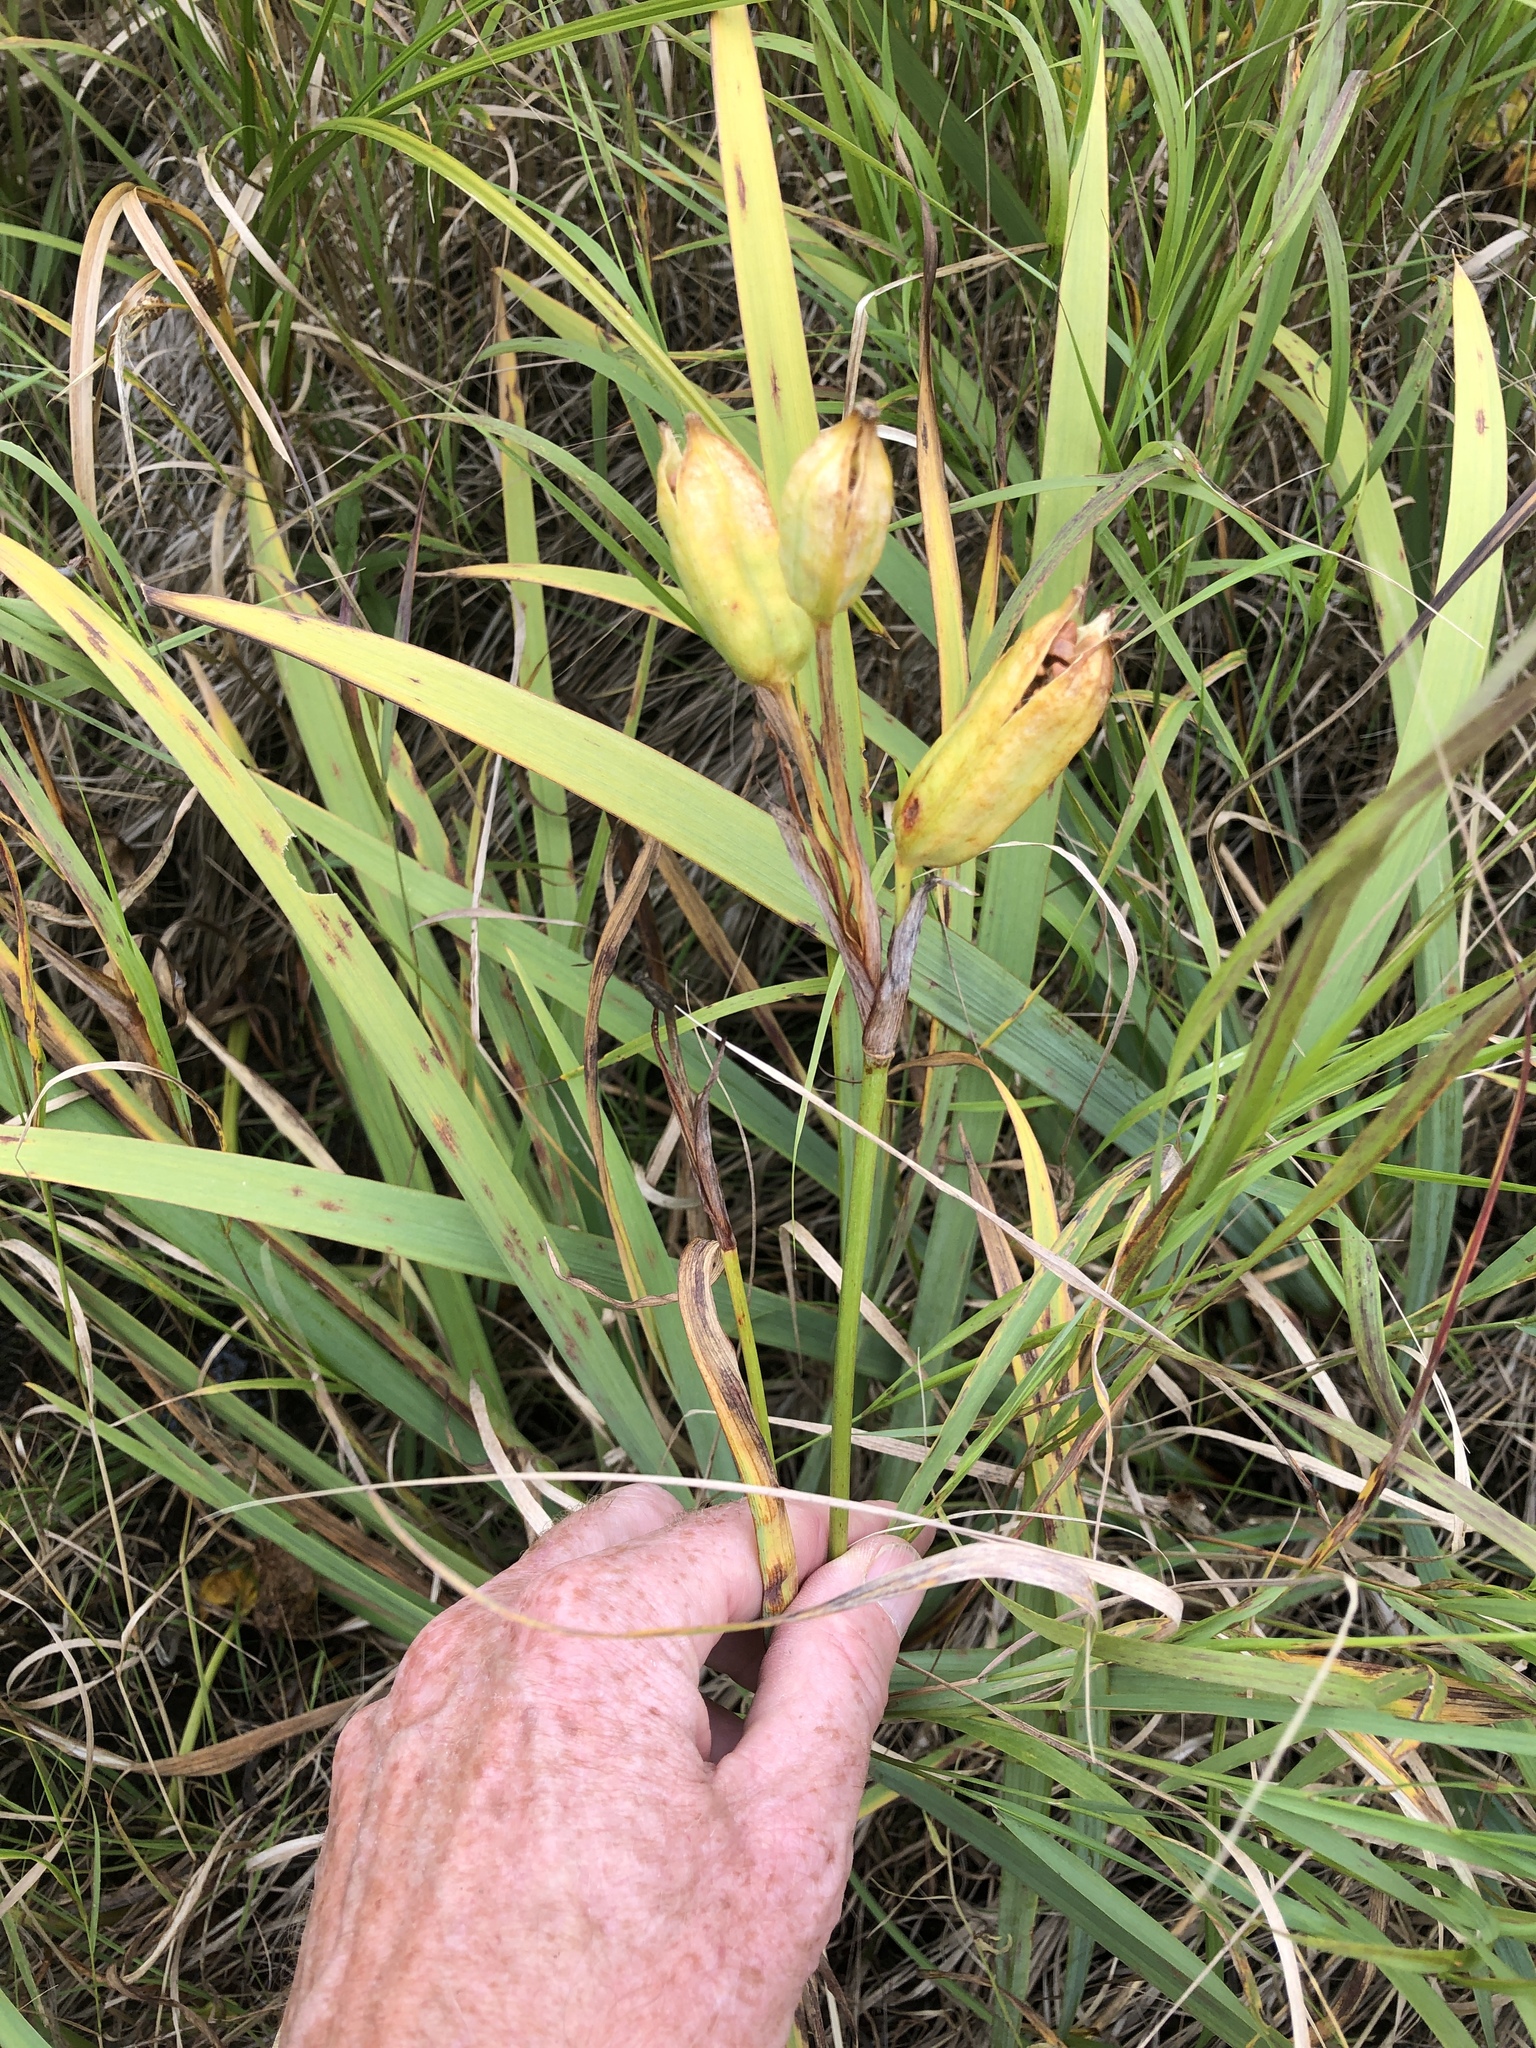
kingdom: Plantae
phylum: Tracheophyta
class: Liliopsida
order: Asparagales
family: Iridaceae
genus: Iris
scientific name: Iris versicolor
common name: Purple iris
